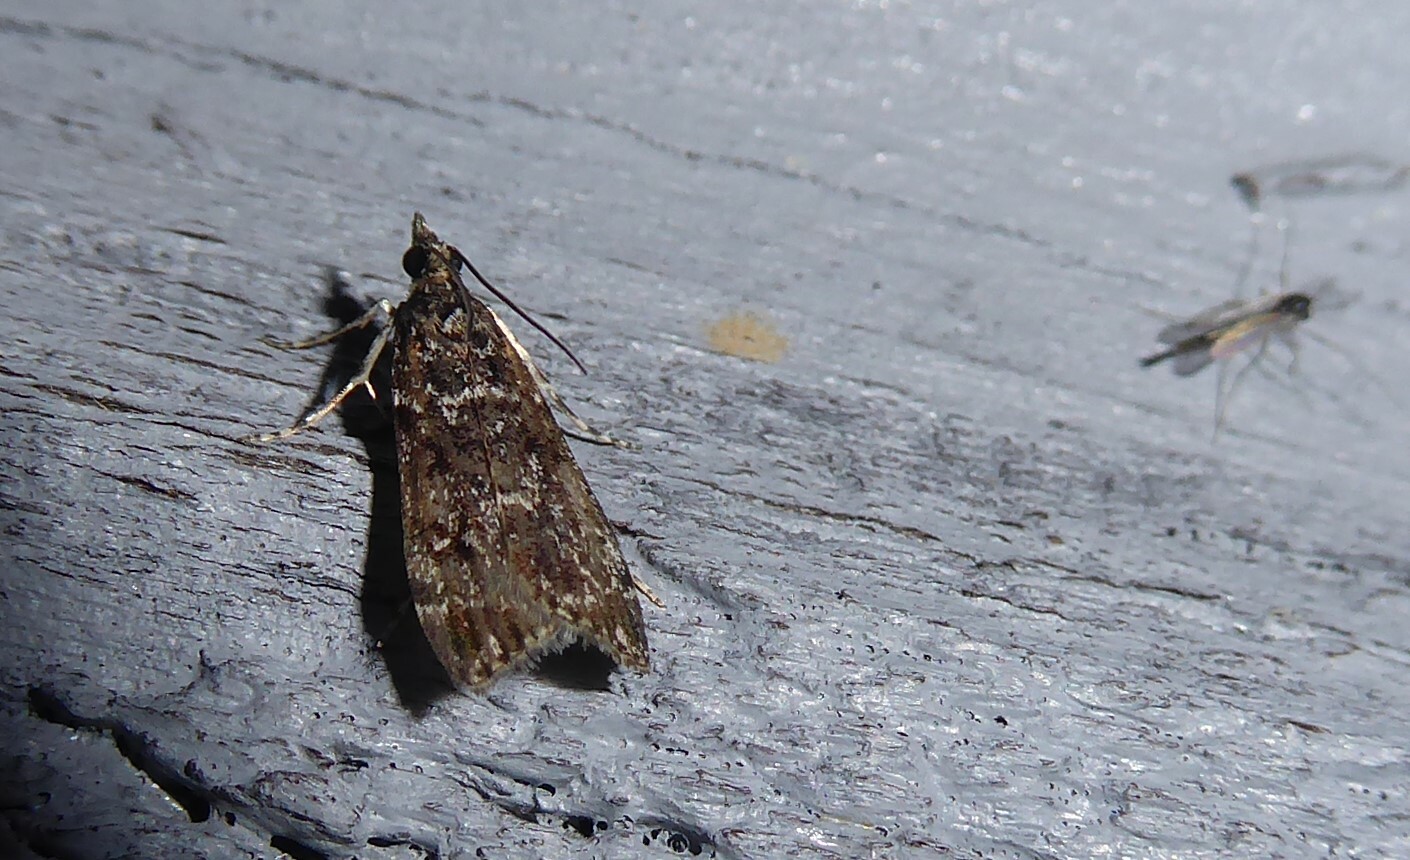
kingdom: Animalia
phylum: Arthropoda
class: Insecta
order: Lepidoptera
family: Crambidae
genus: Eudonia
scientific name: Eudonia philerga
